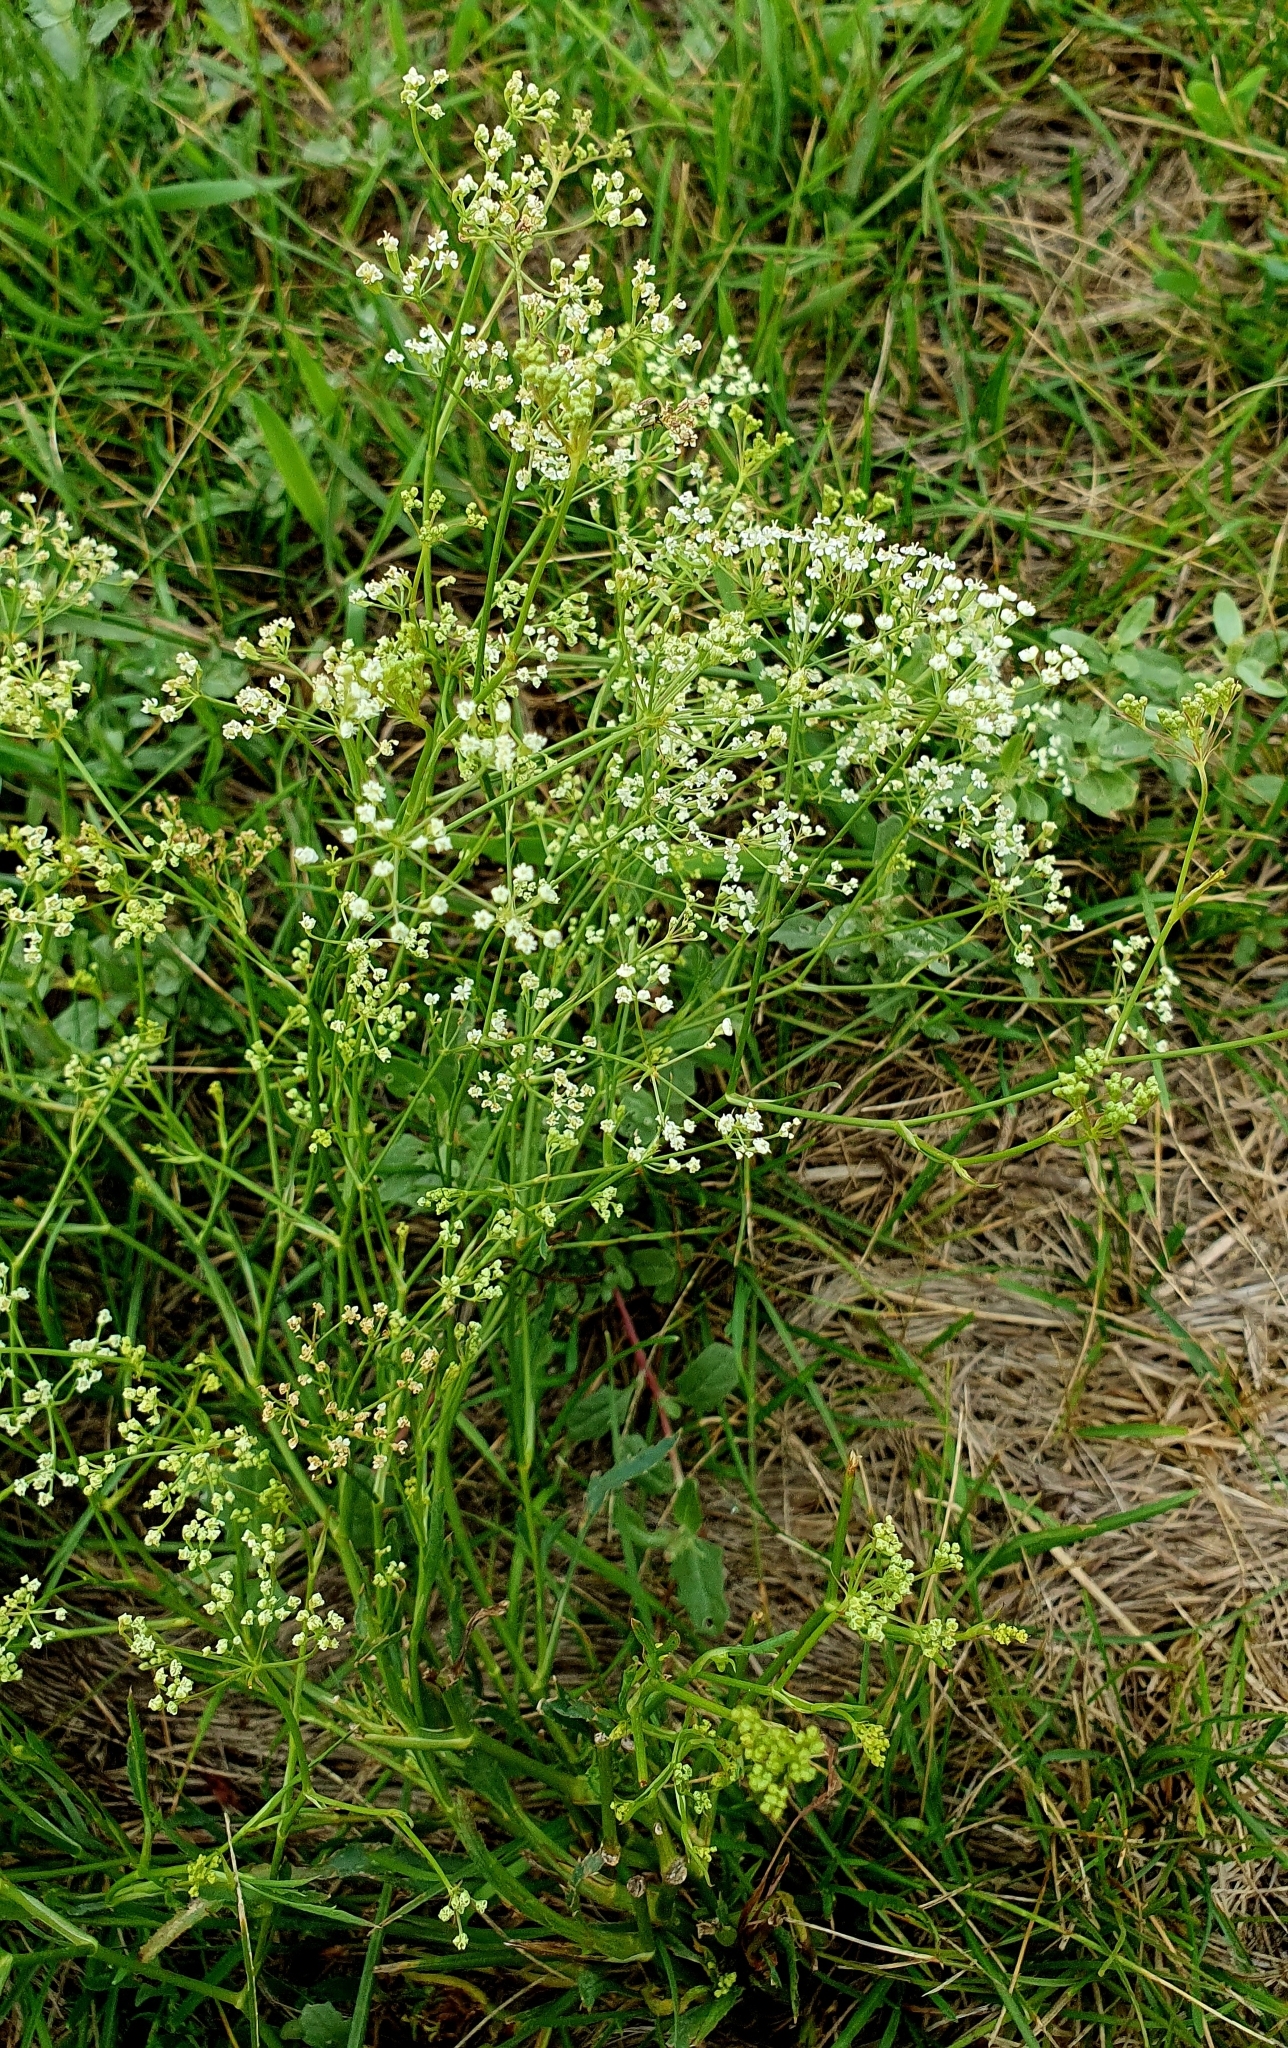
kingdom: Plantae
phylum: Tracheophyta
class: Magnoliopsida
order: Apiales
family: Apiaceae
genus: Falcaria
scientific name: Falcaria vulgaris
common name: Longleaf
